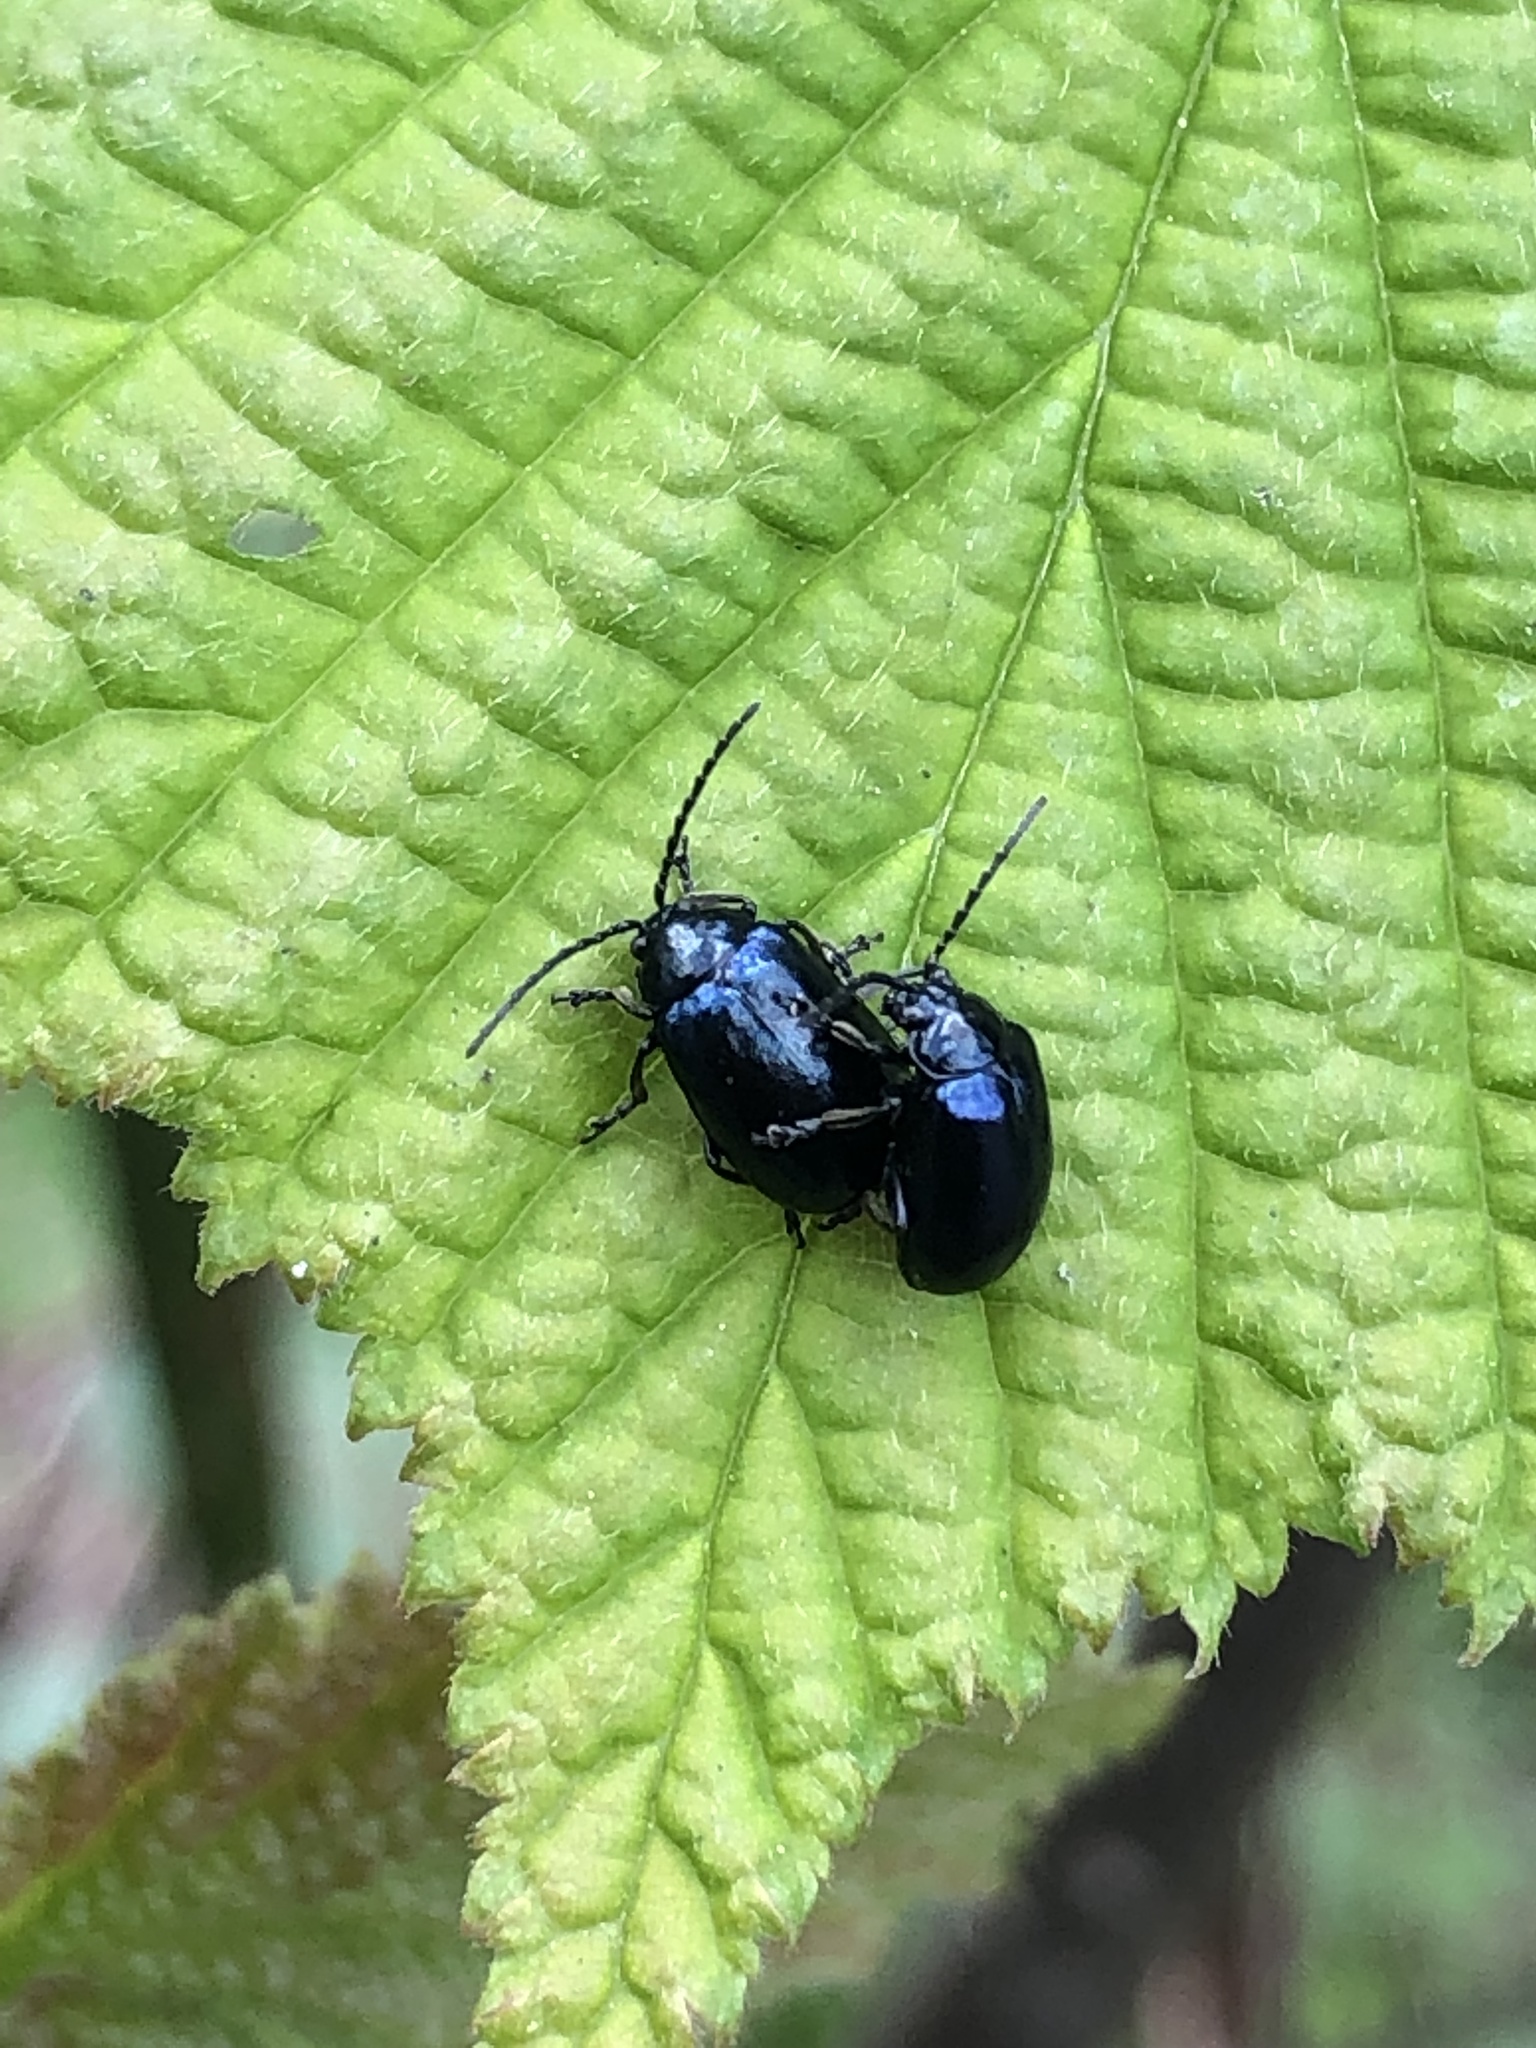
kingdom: Animalia
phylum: Arthropoda
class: Insecta
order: Coleoptera
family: Chrysomelidae
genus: Agelastica
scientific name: Agelastica alni
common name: Alder leaf beetle
